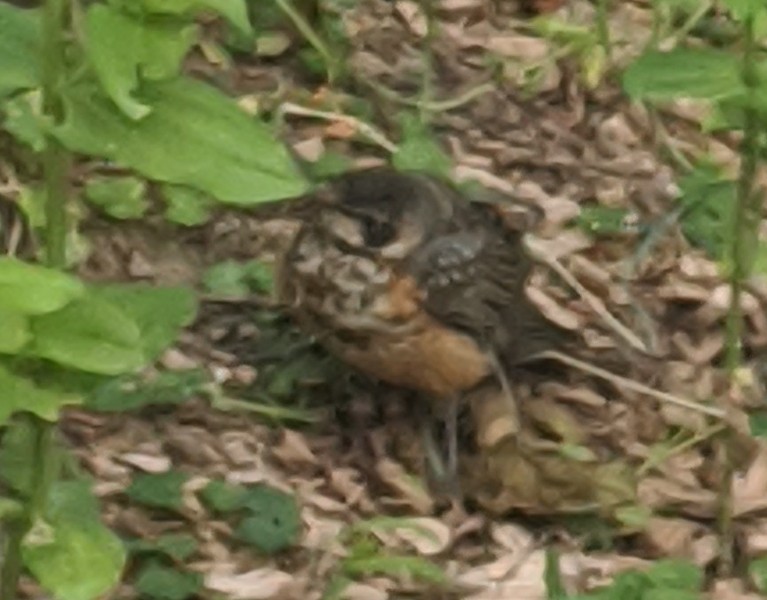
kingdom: Animalia
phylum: Chordata
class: Aves
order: Passeriformes
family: Turdidae
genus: Turdus
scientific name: Turdus migratorius
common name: American robin
